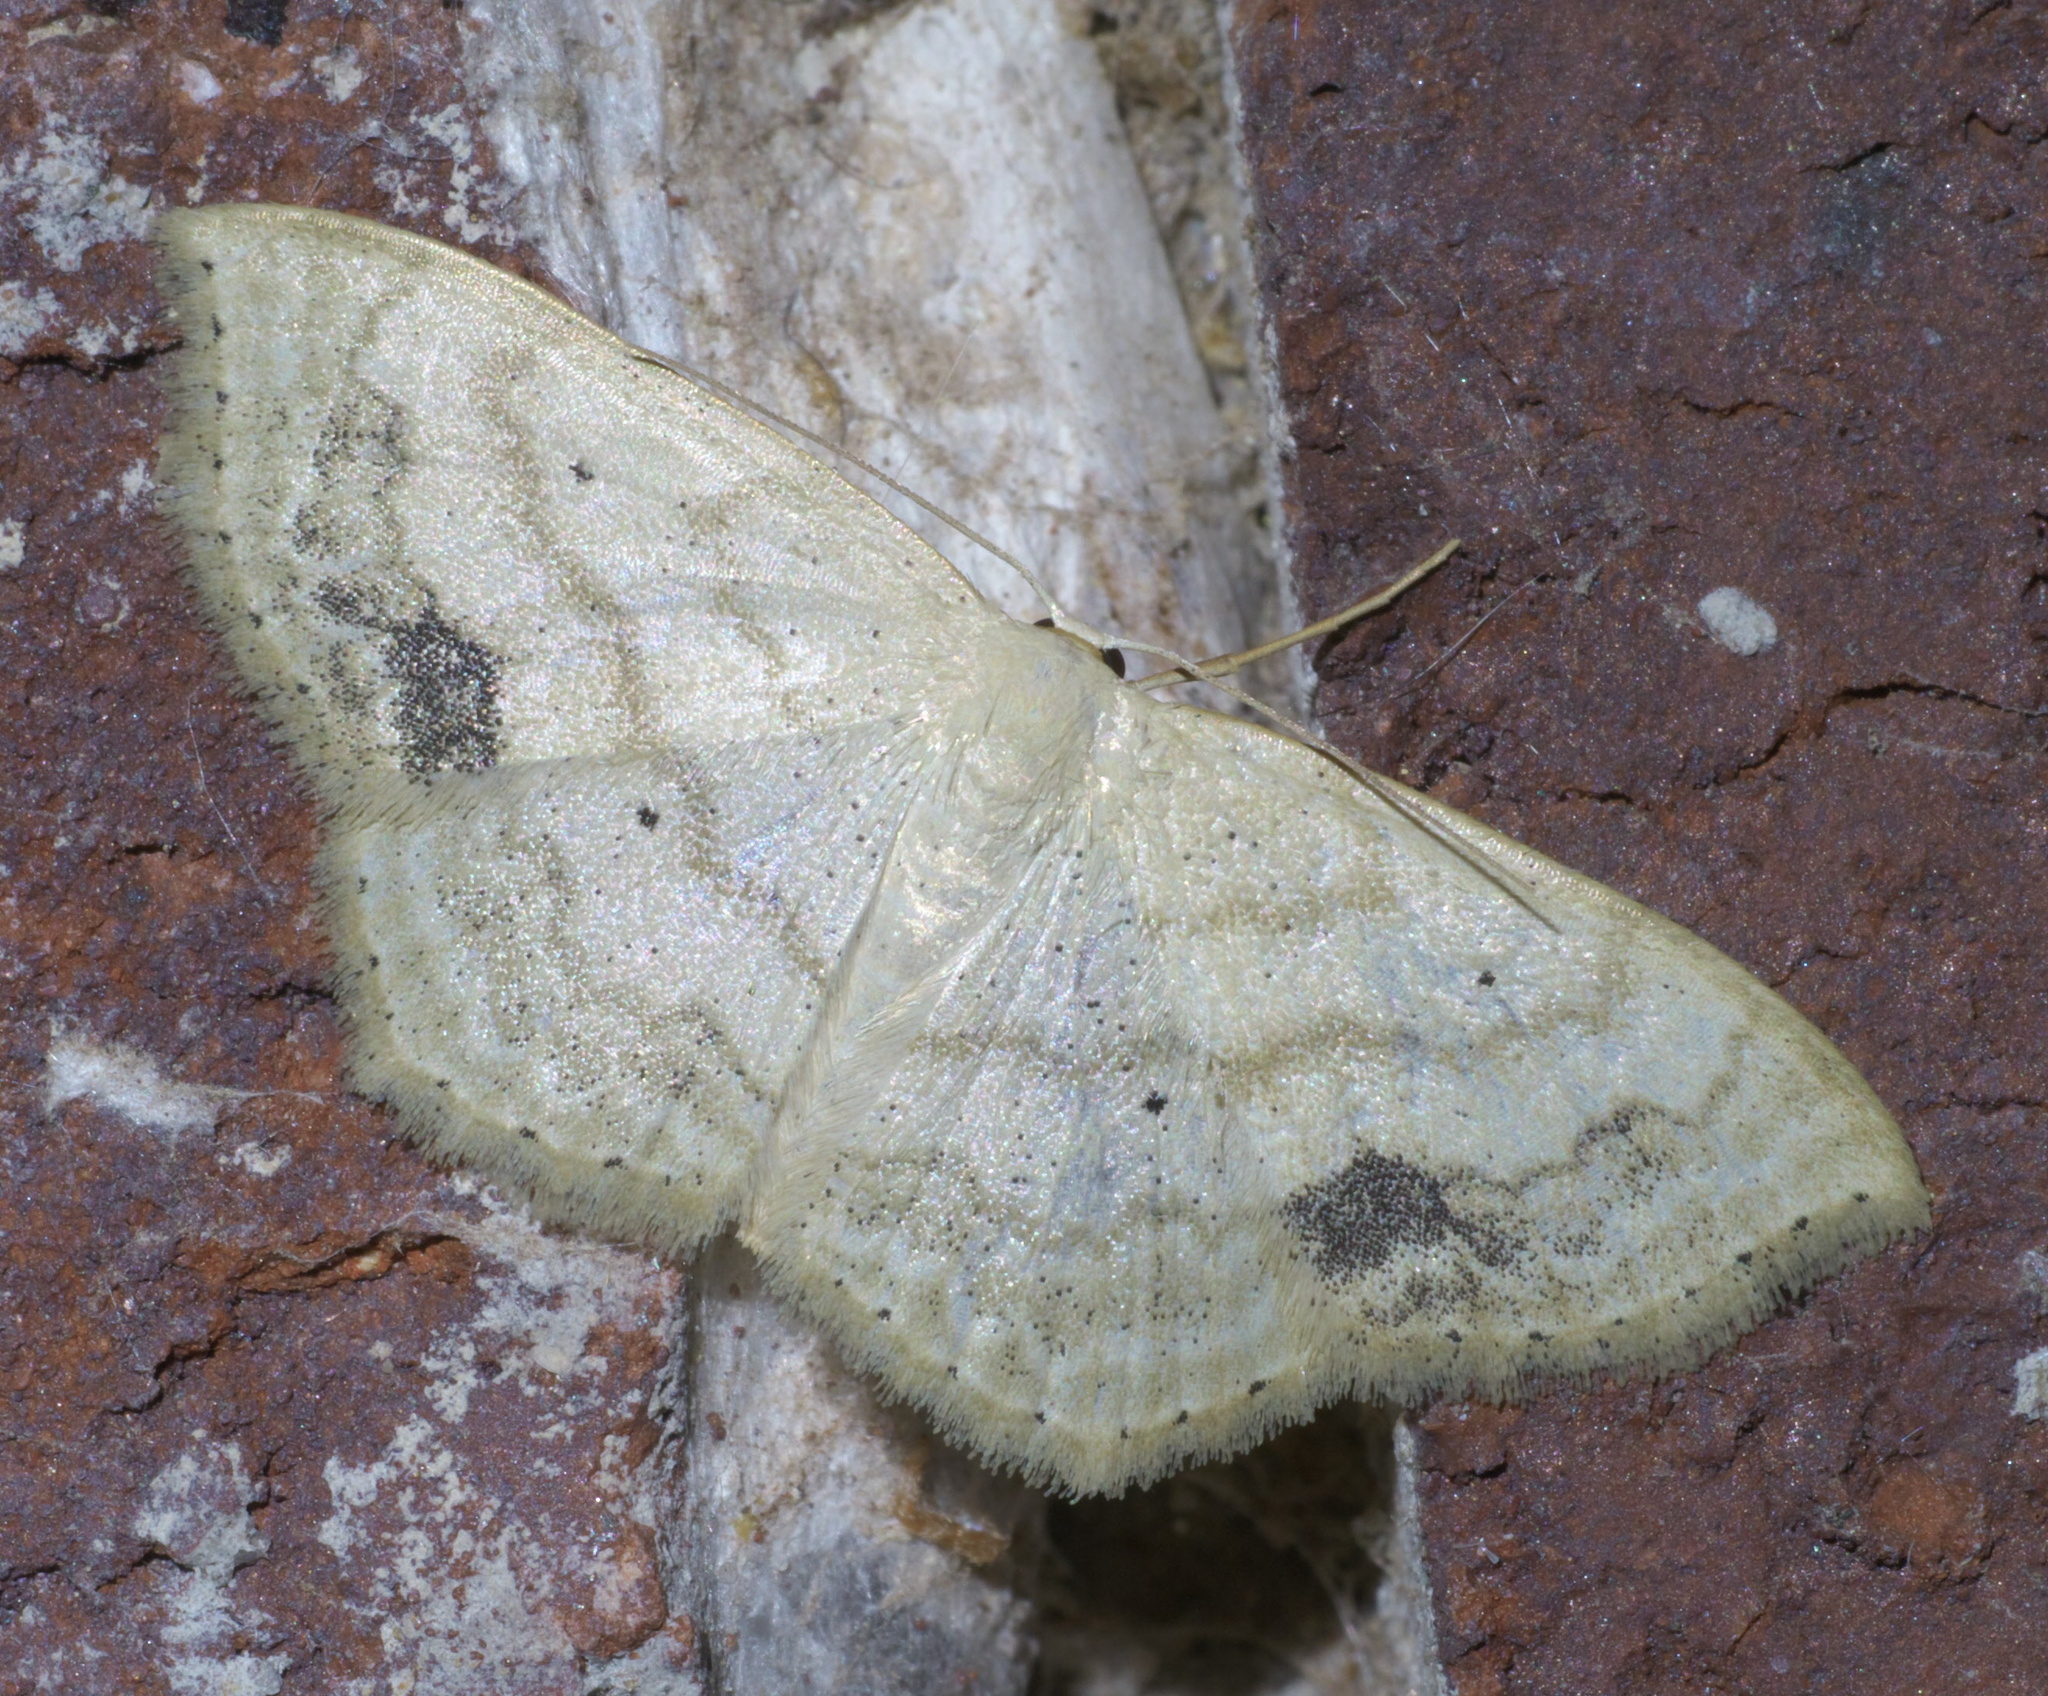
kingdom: Animalia
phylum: Arthropoda
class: Insecta
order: Lepidoptera
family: Geometridae
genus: Scopula
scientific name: Scopula limboundata
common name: Large lace border
